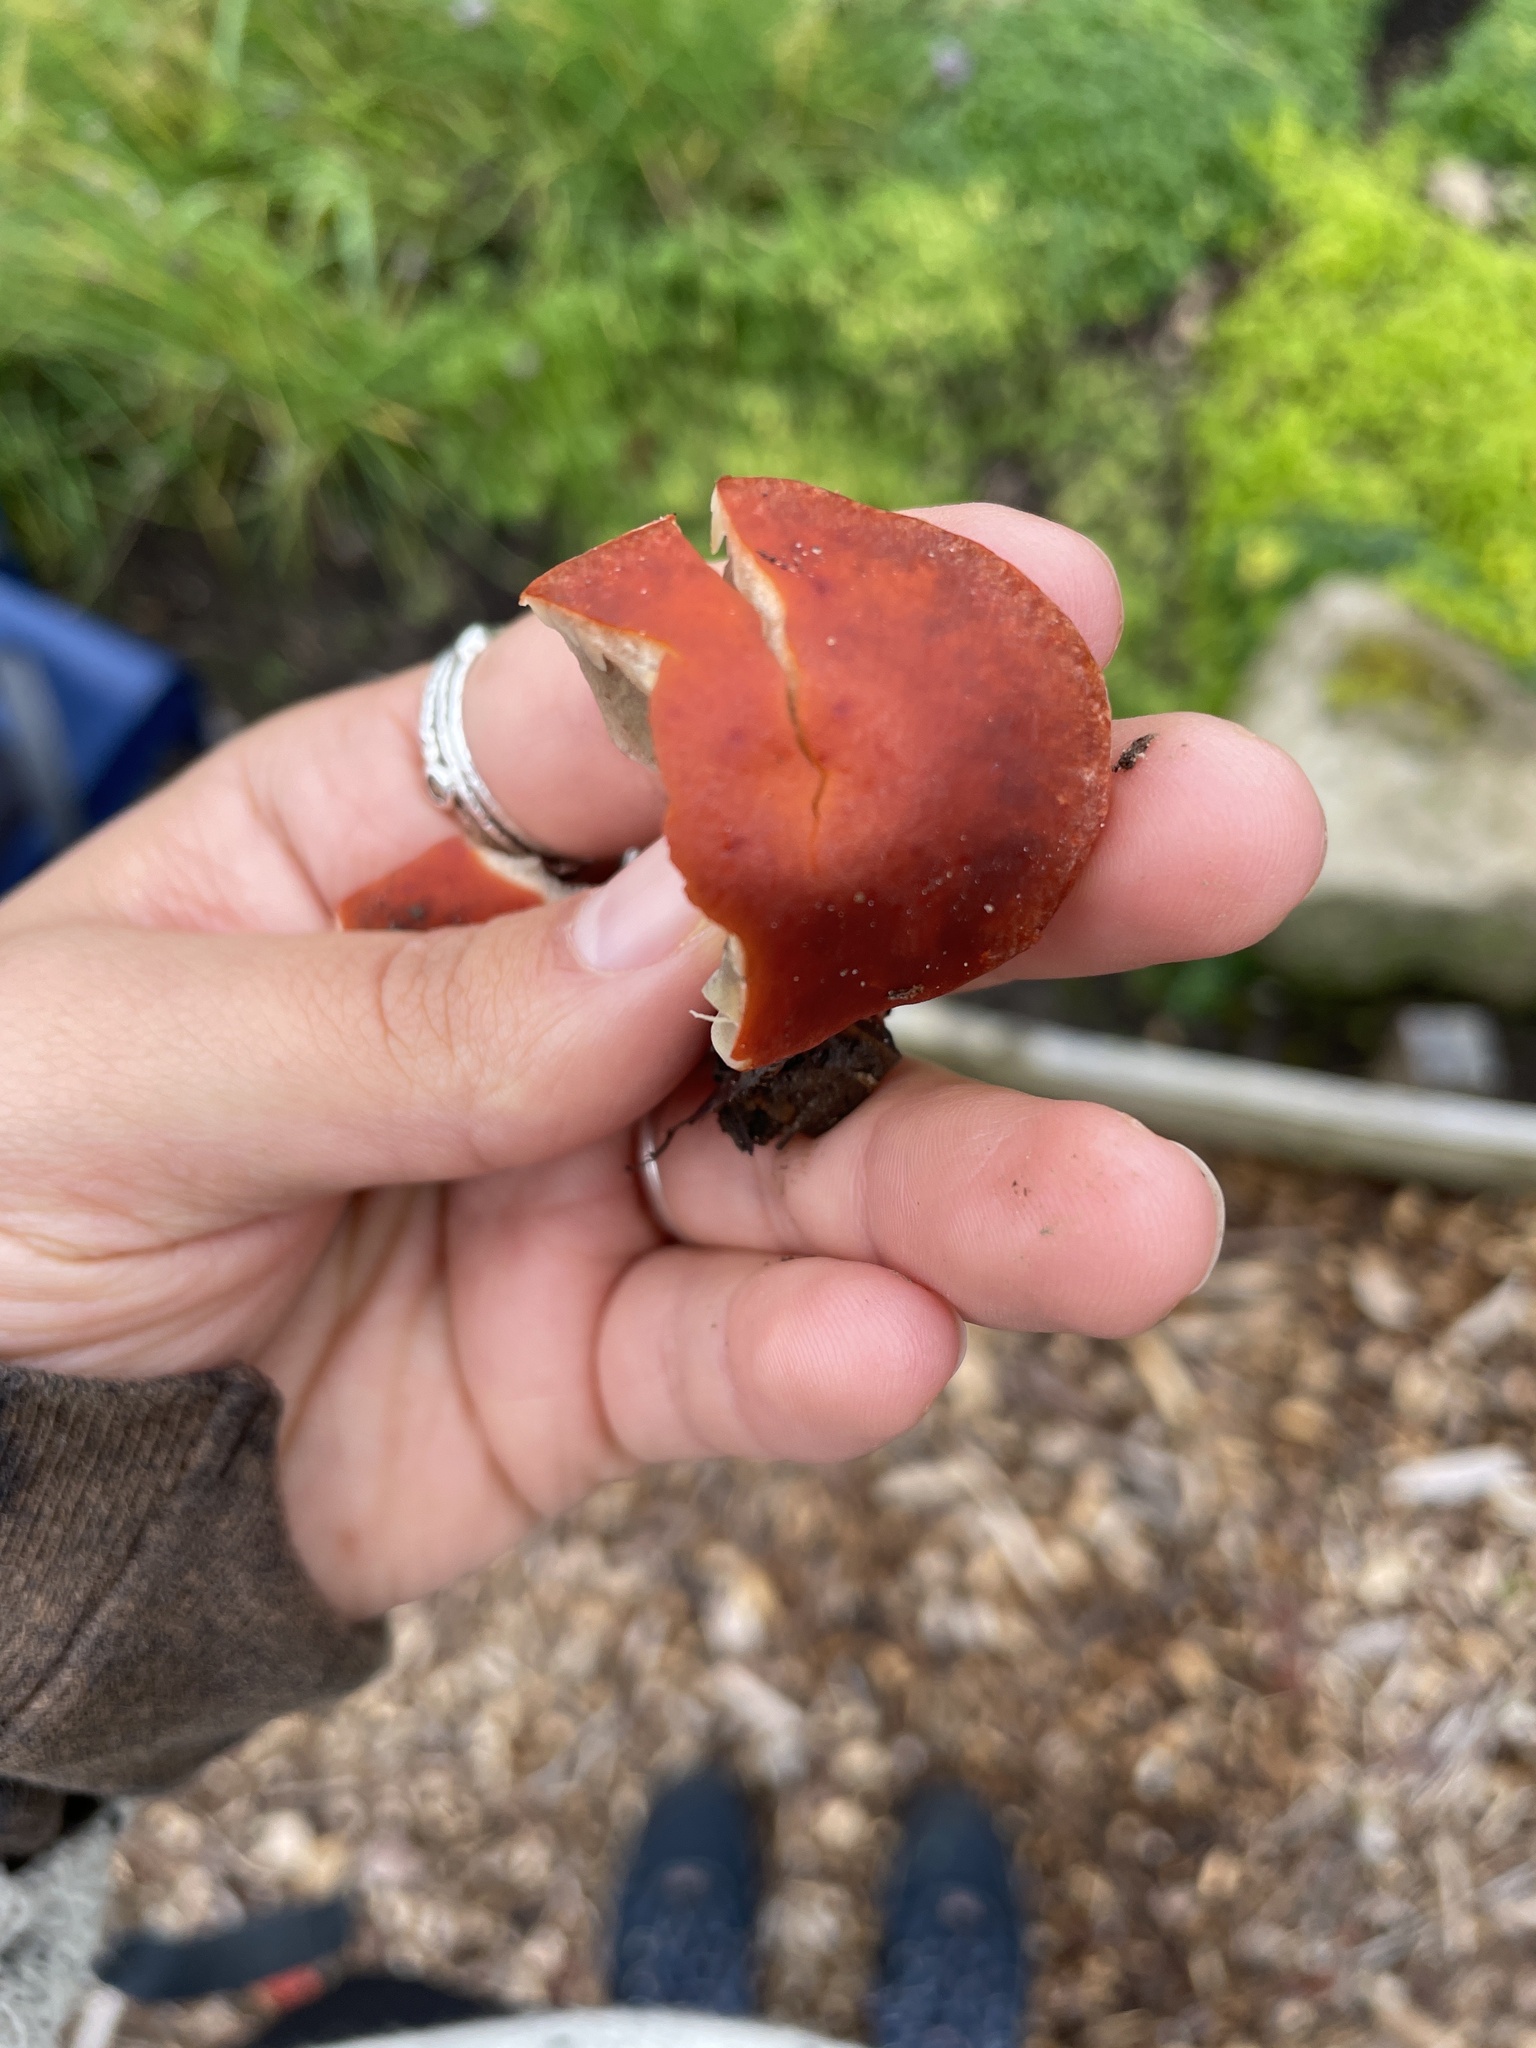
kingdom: Fungi
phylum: Basidiomycota
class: Agaricomycetes
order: Agaricales
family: Strophariaceae
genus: Leratiomyces
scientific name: Leratiomyces ceres
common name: Redlead roundhead
